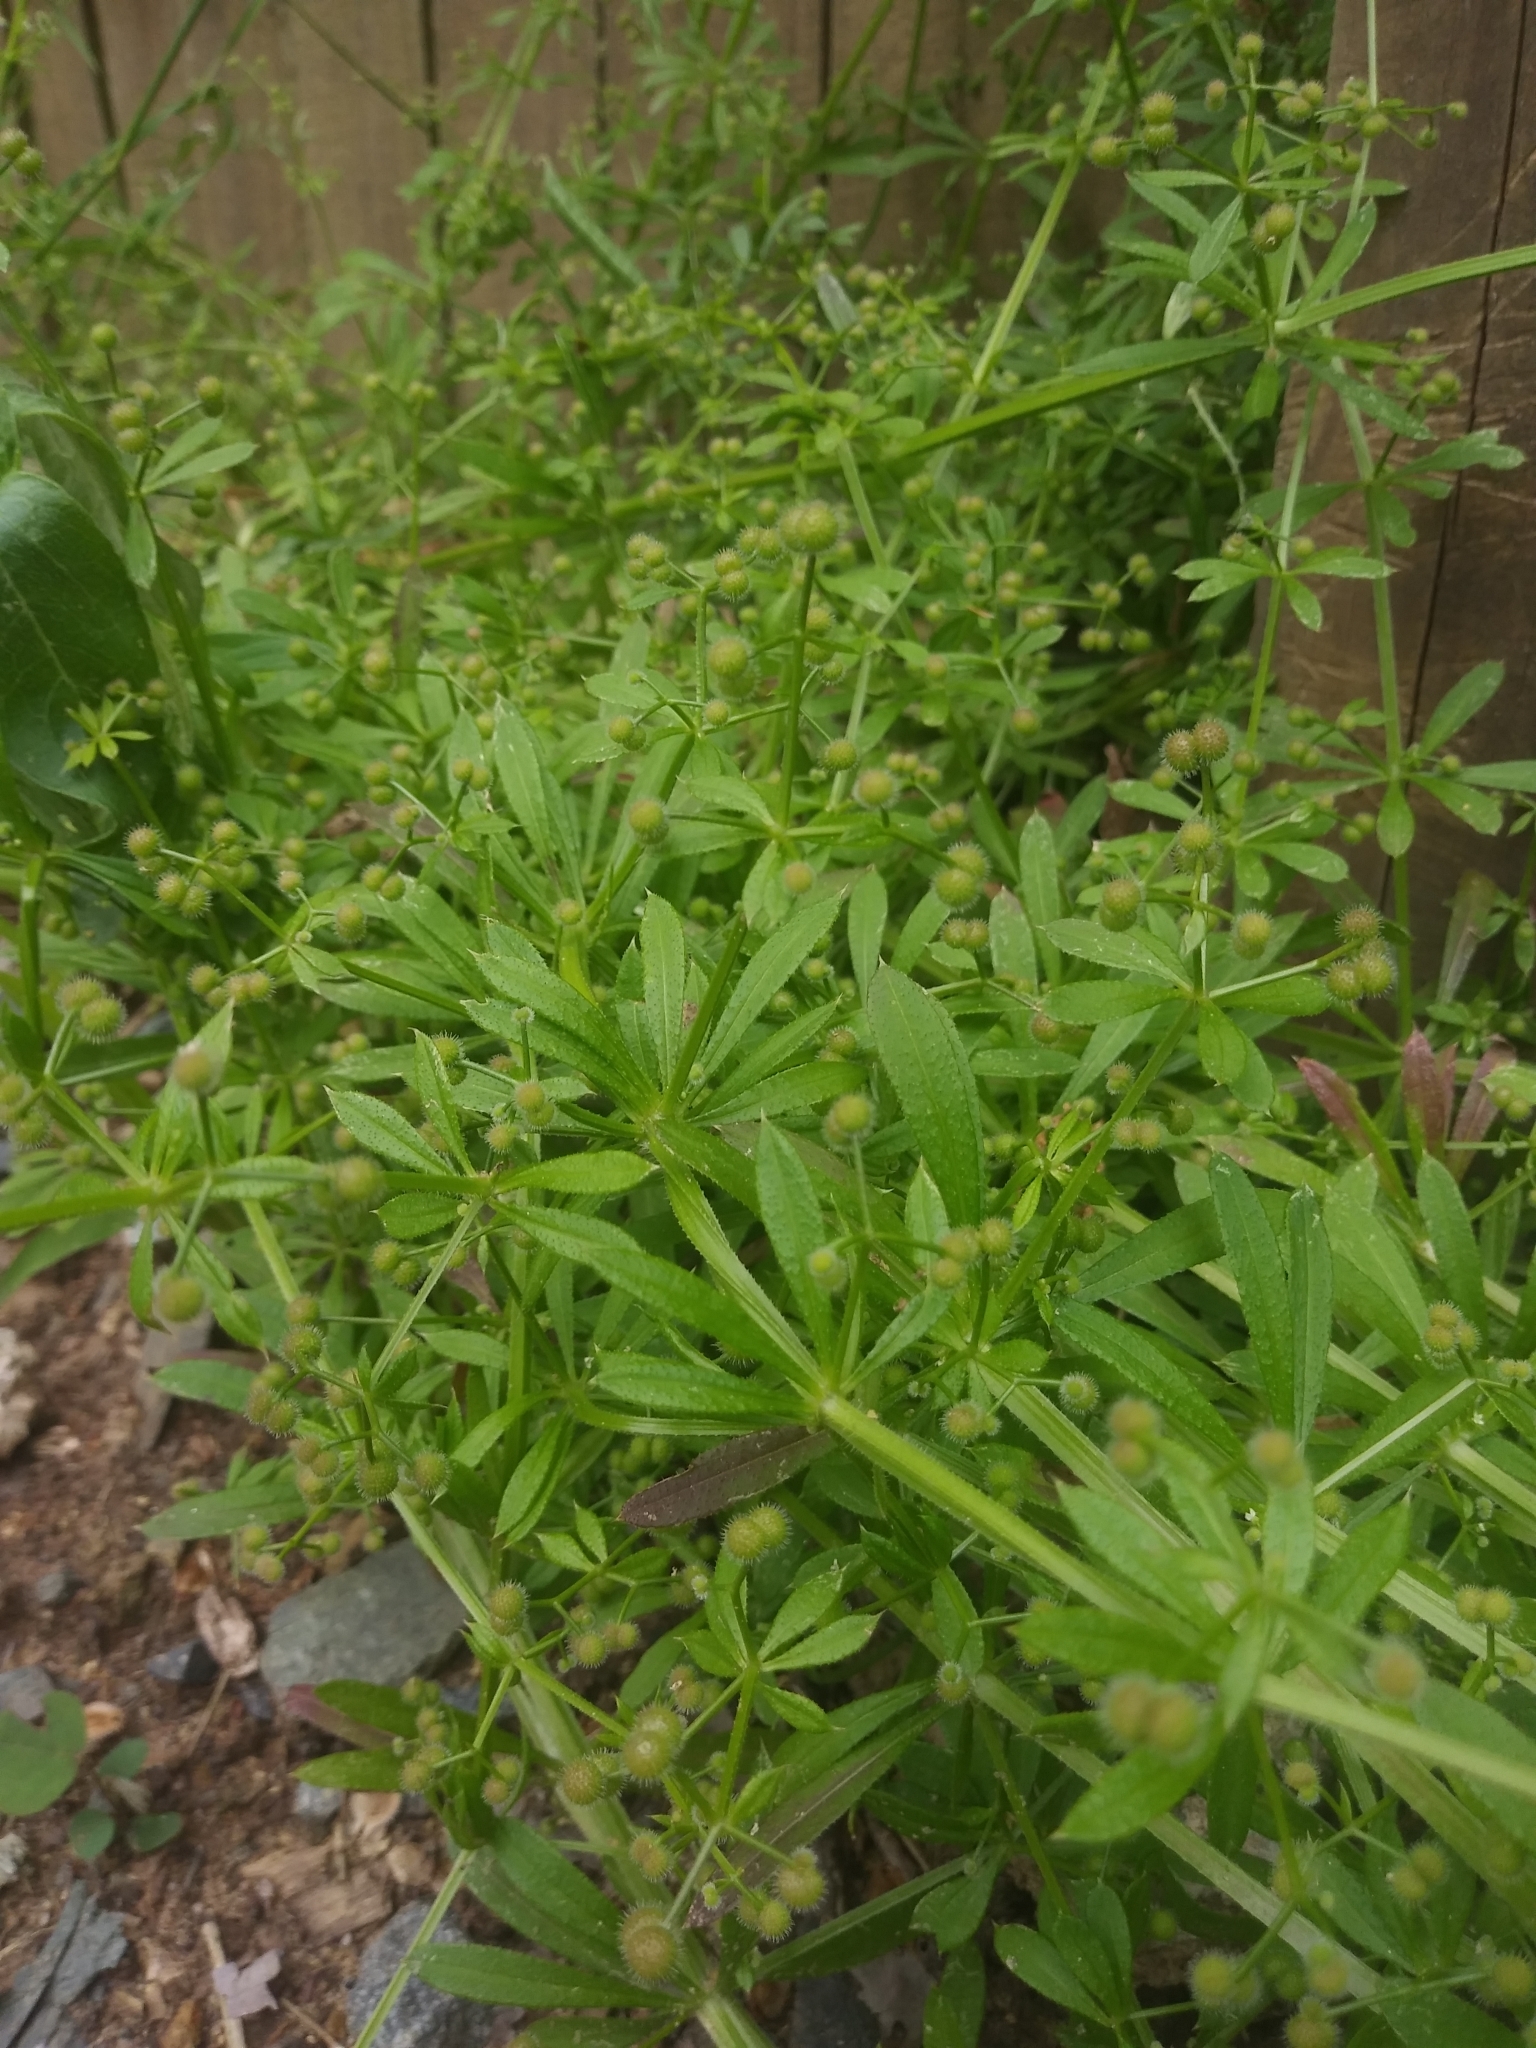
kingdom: Plantae
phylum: Tracheophyta
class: Magnoliopsida
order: Gentianales
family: Rubiaceae
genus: Galium
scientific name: Galium aparine
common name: Cleavers
